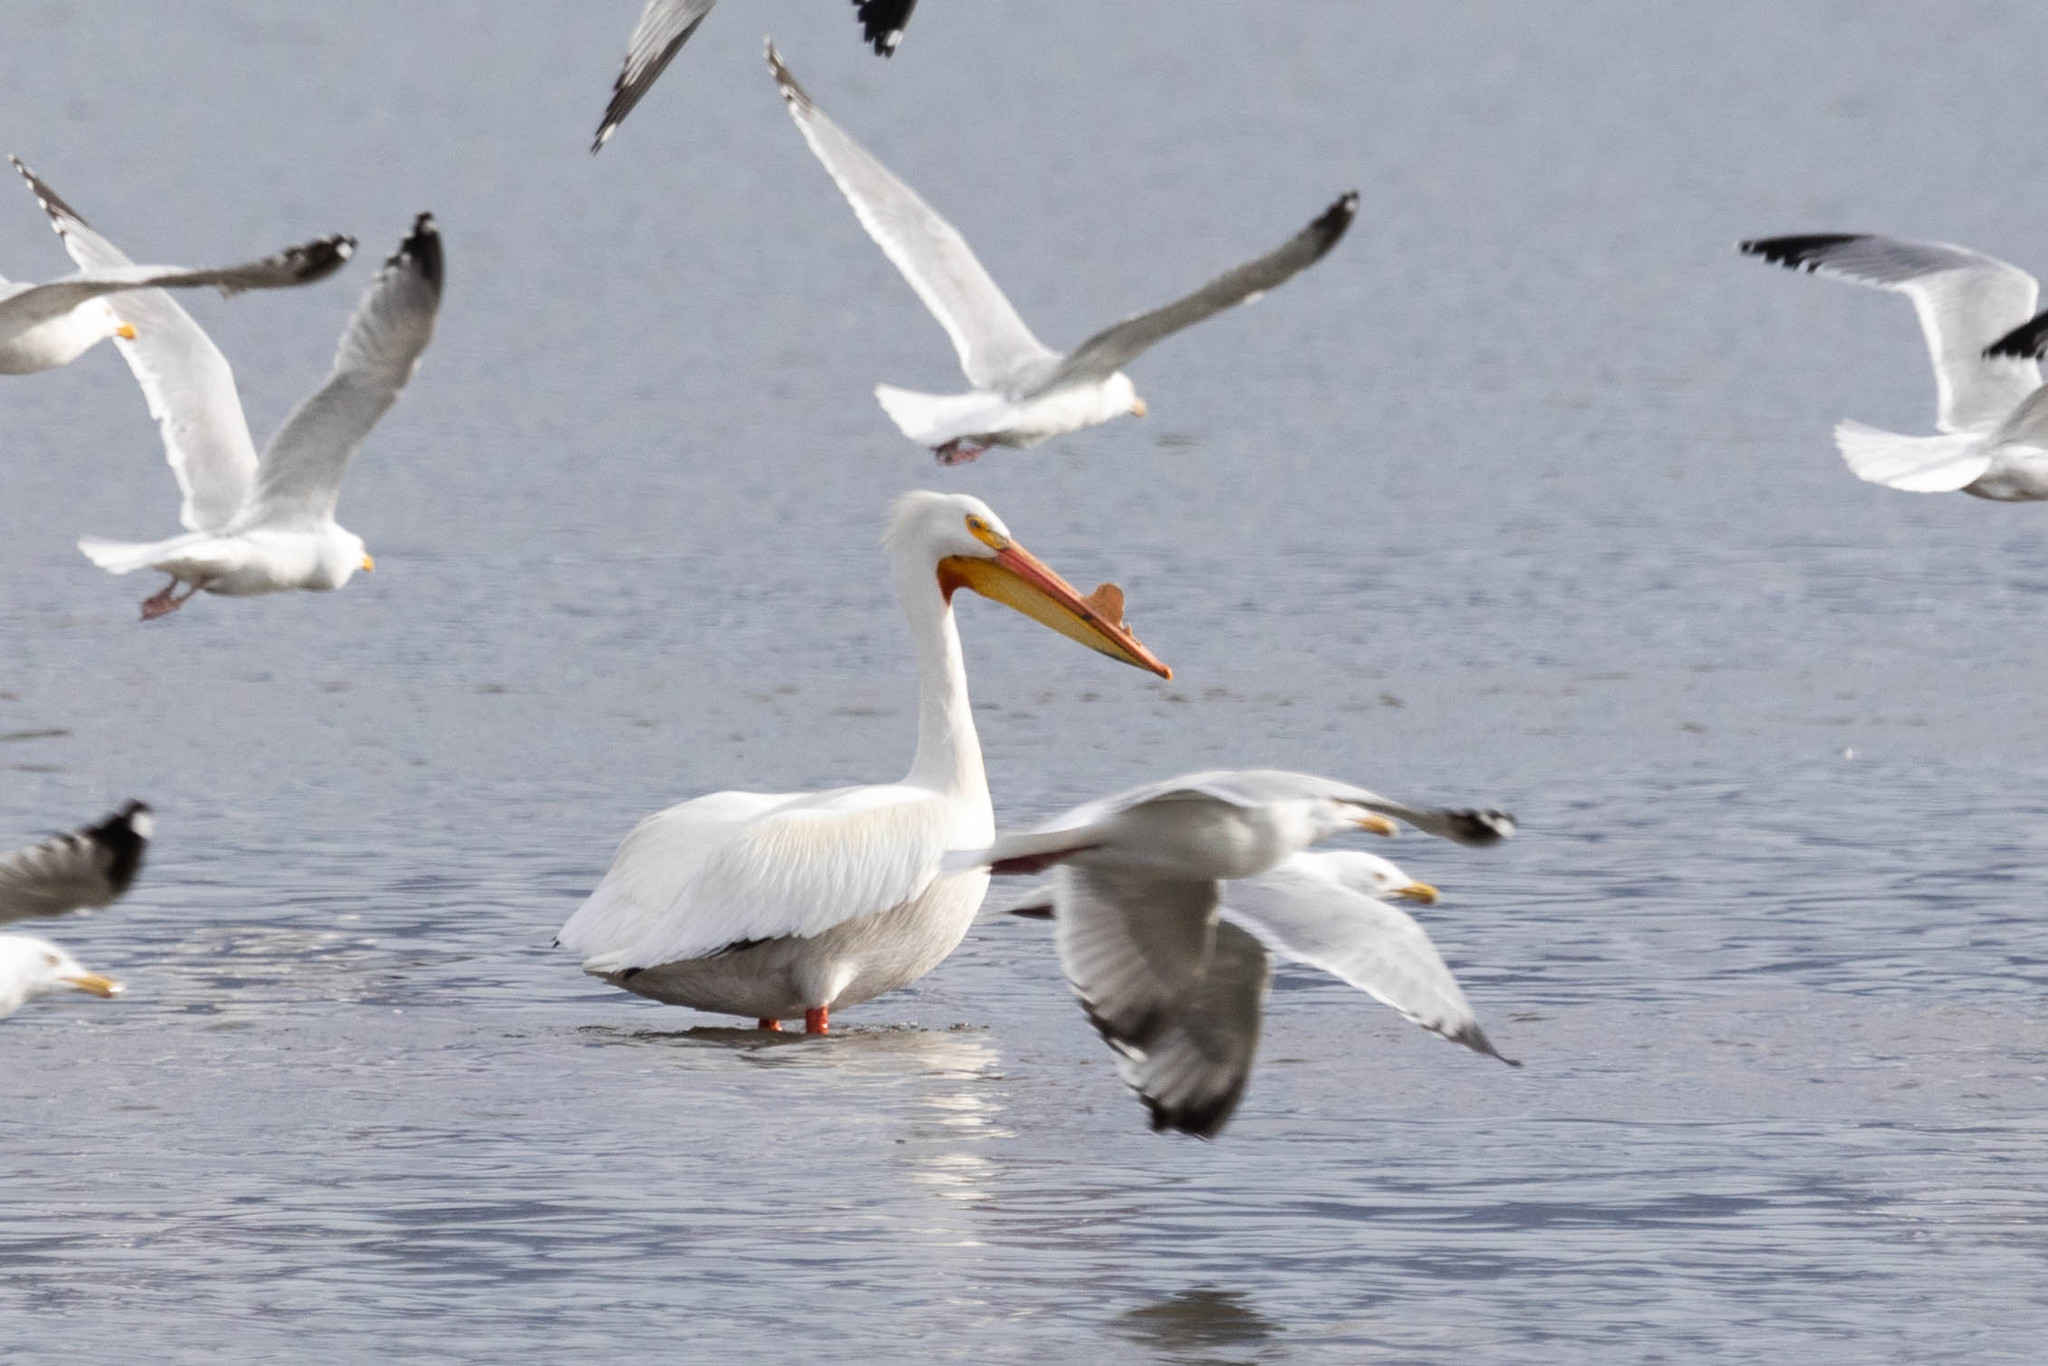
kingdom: Animalia
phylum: Chordata
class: Aves
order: Pelecaniformes
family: Pelecanidae
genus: Pelecanus
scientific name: Pelecanus erythrorhynchos
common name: American white pelican
